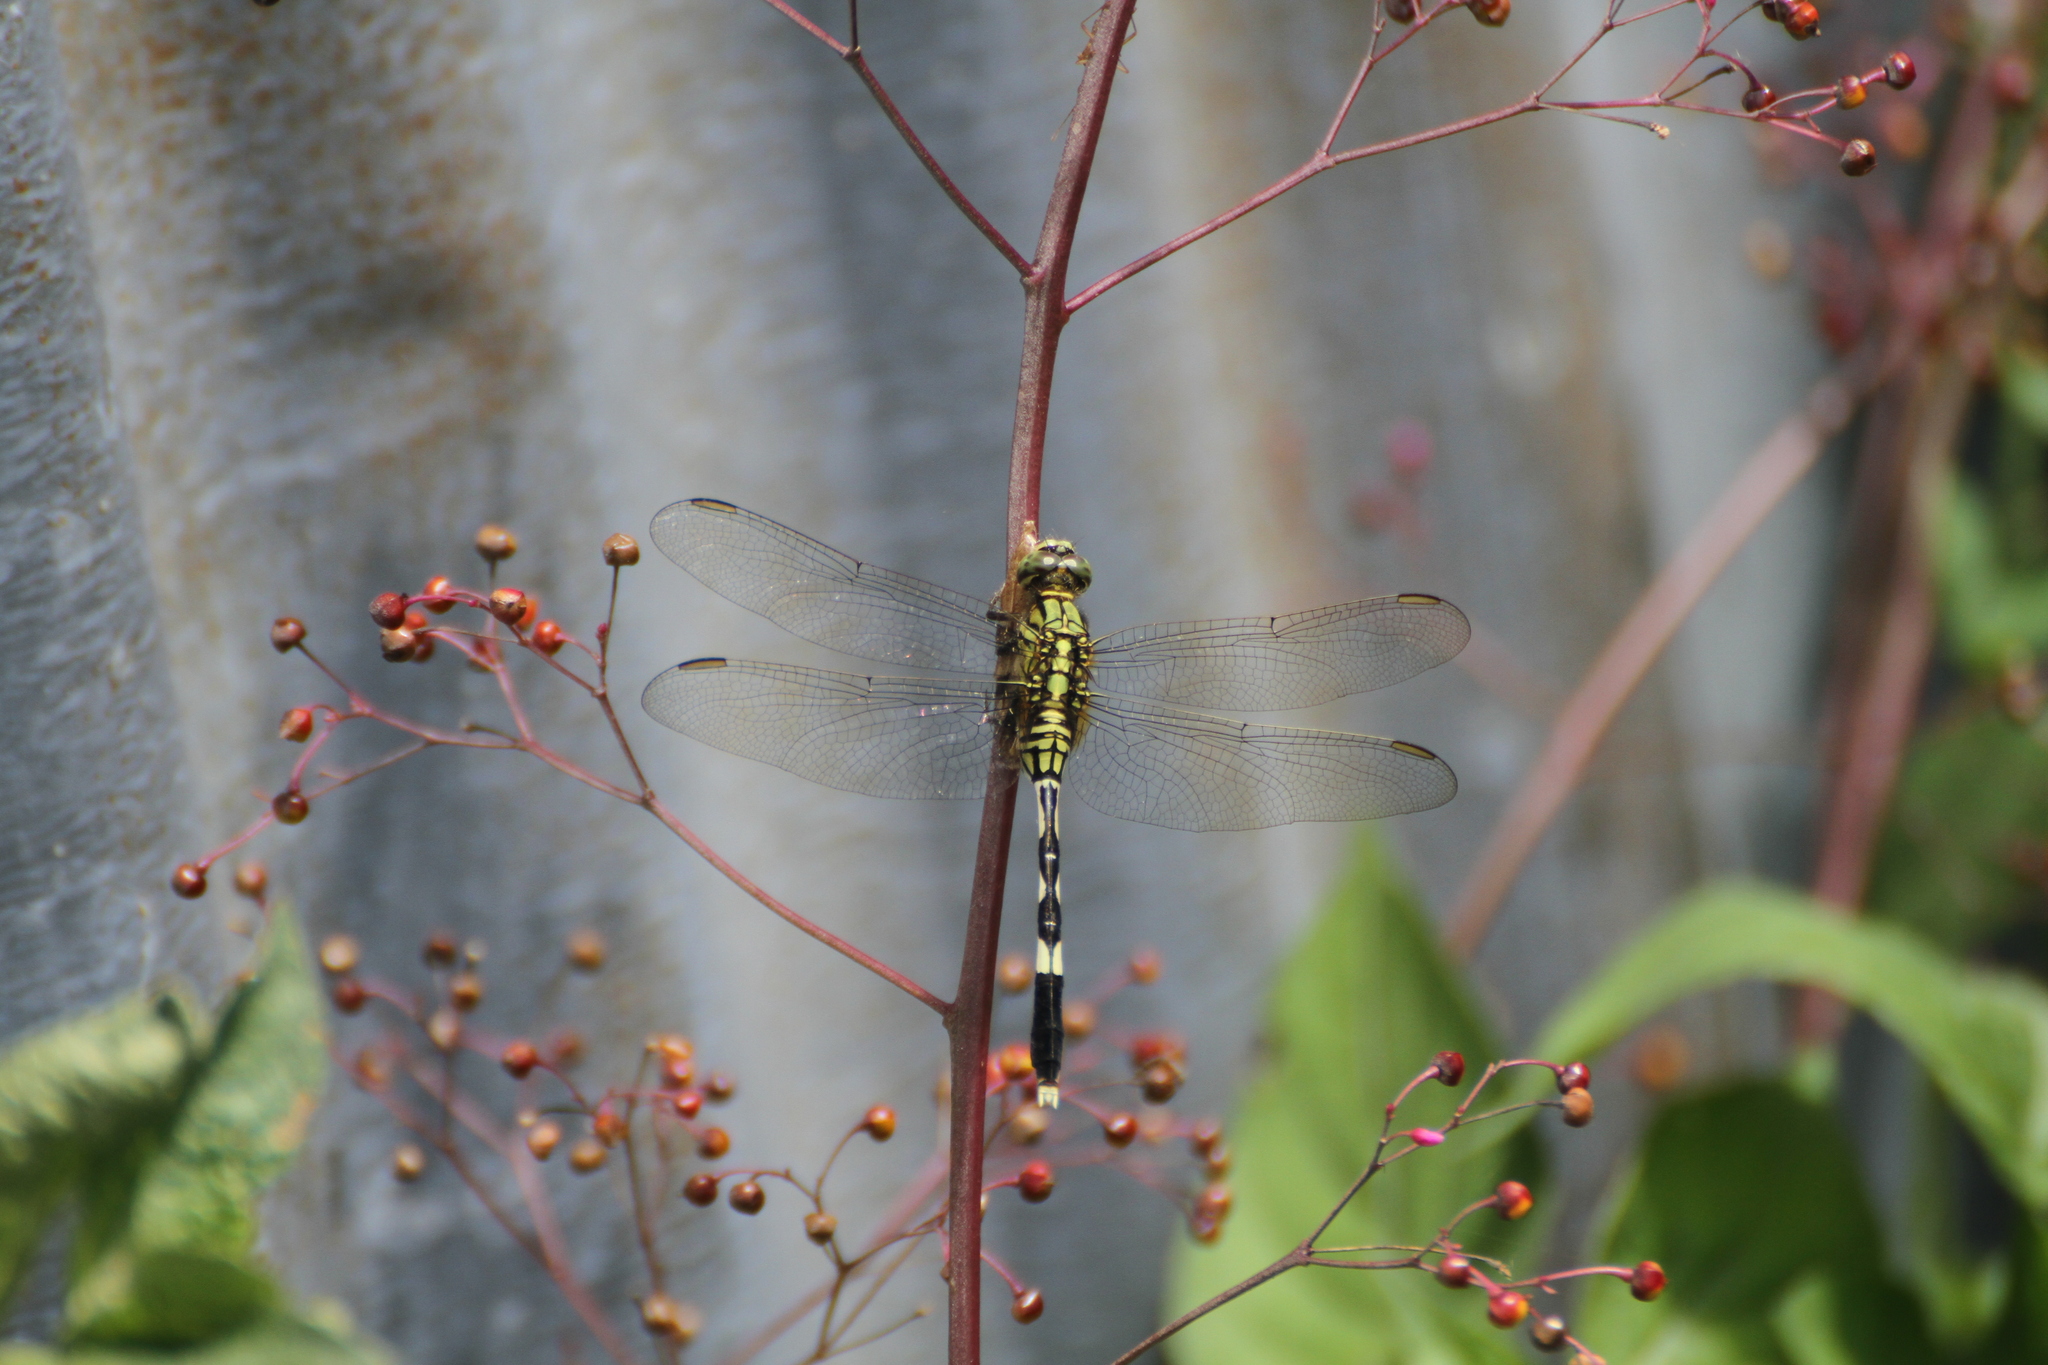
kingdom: Animalia
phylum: Arthropoda
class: Insecta
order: Odonata
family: Libellulidae
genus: Orthetrum
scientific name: Orthetrum sabina
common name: Slender skimmer
